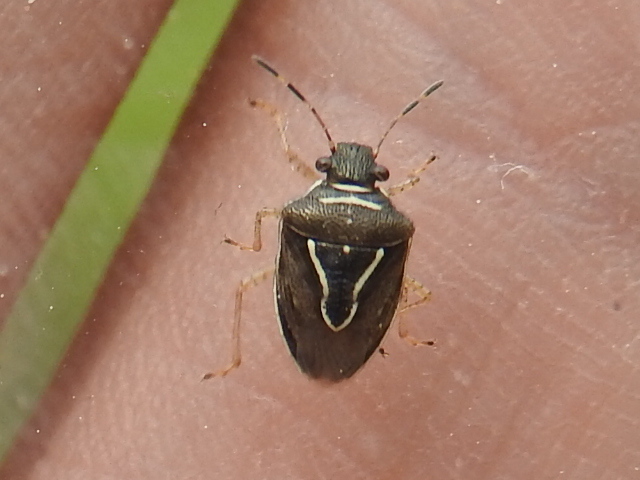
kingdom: Animalia
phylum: Arthropoda
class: Insecta
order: Hemiptera
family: Pentatomidae
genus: Mormidea
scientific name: Mormidea lugens
